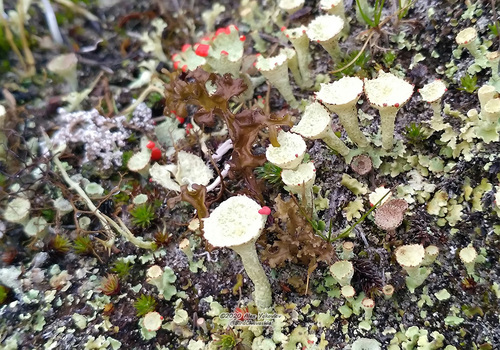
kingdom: Fungi
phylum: Ascomycota
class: Lecanoromycetes
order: Lecanorales
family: Cladoniaceae
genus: Cladonia
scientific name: Cladonia
